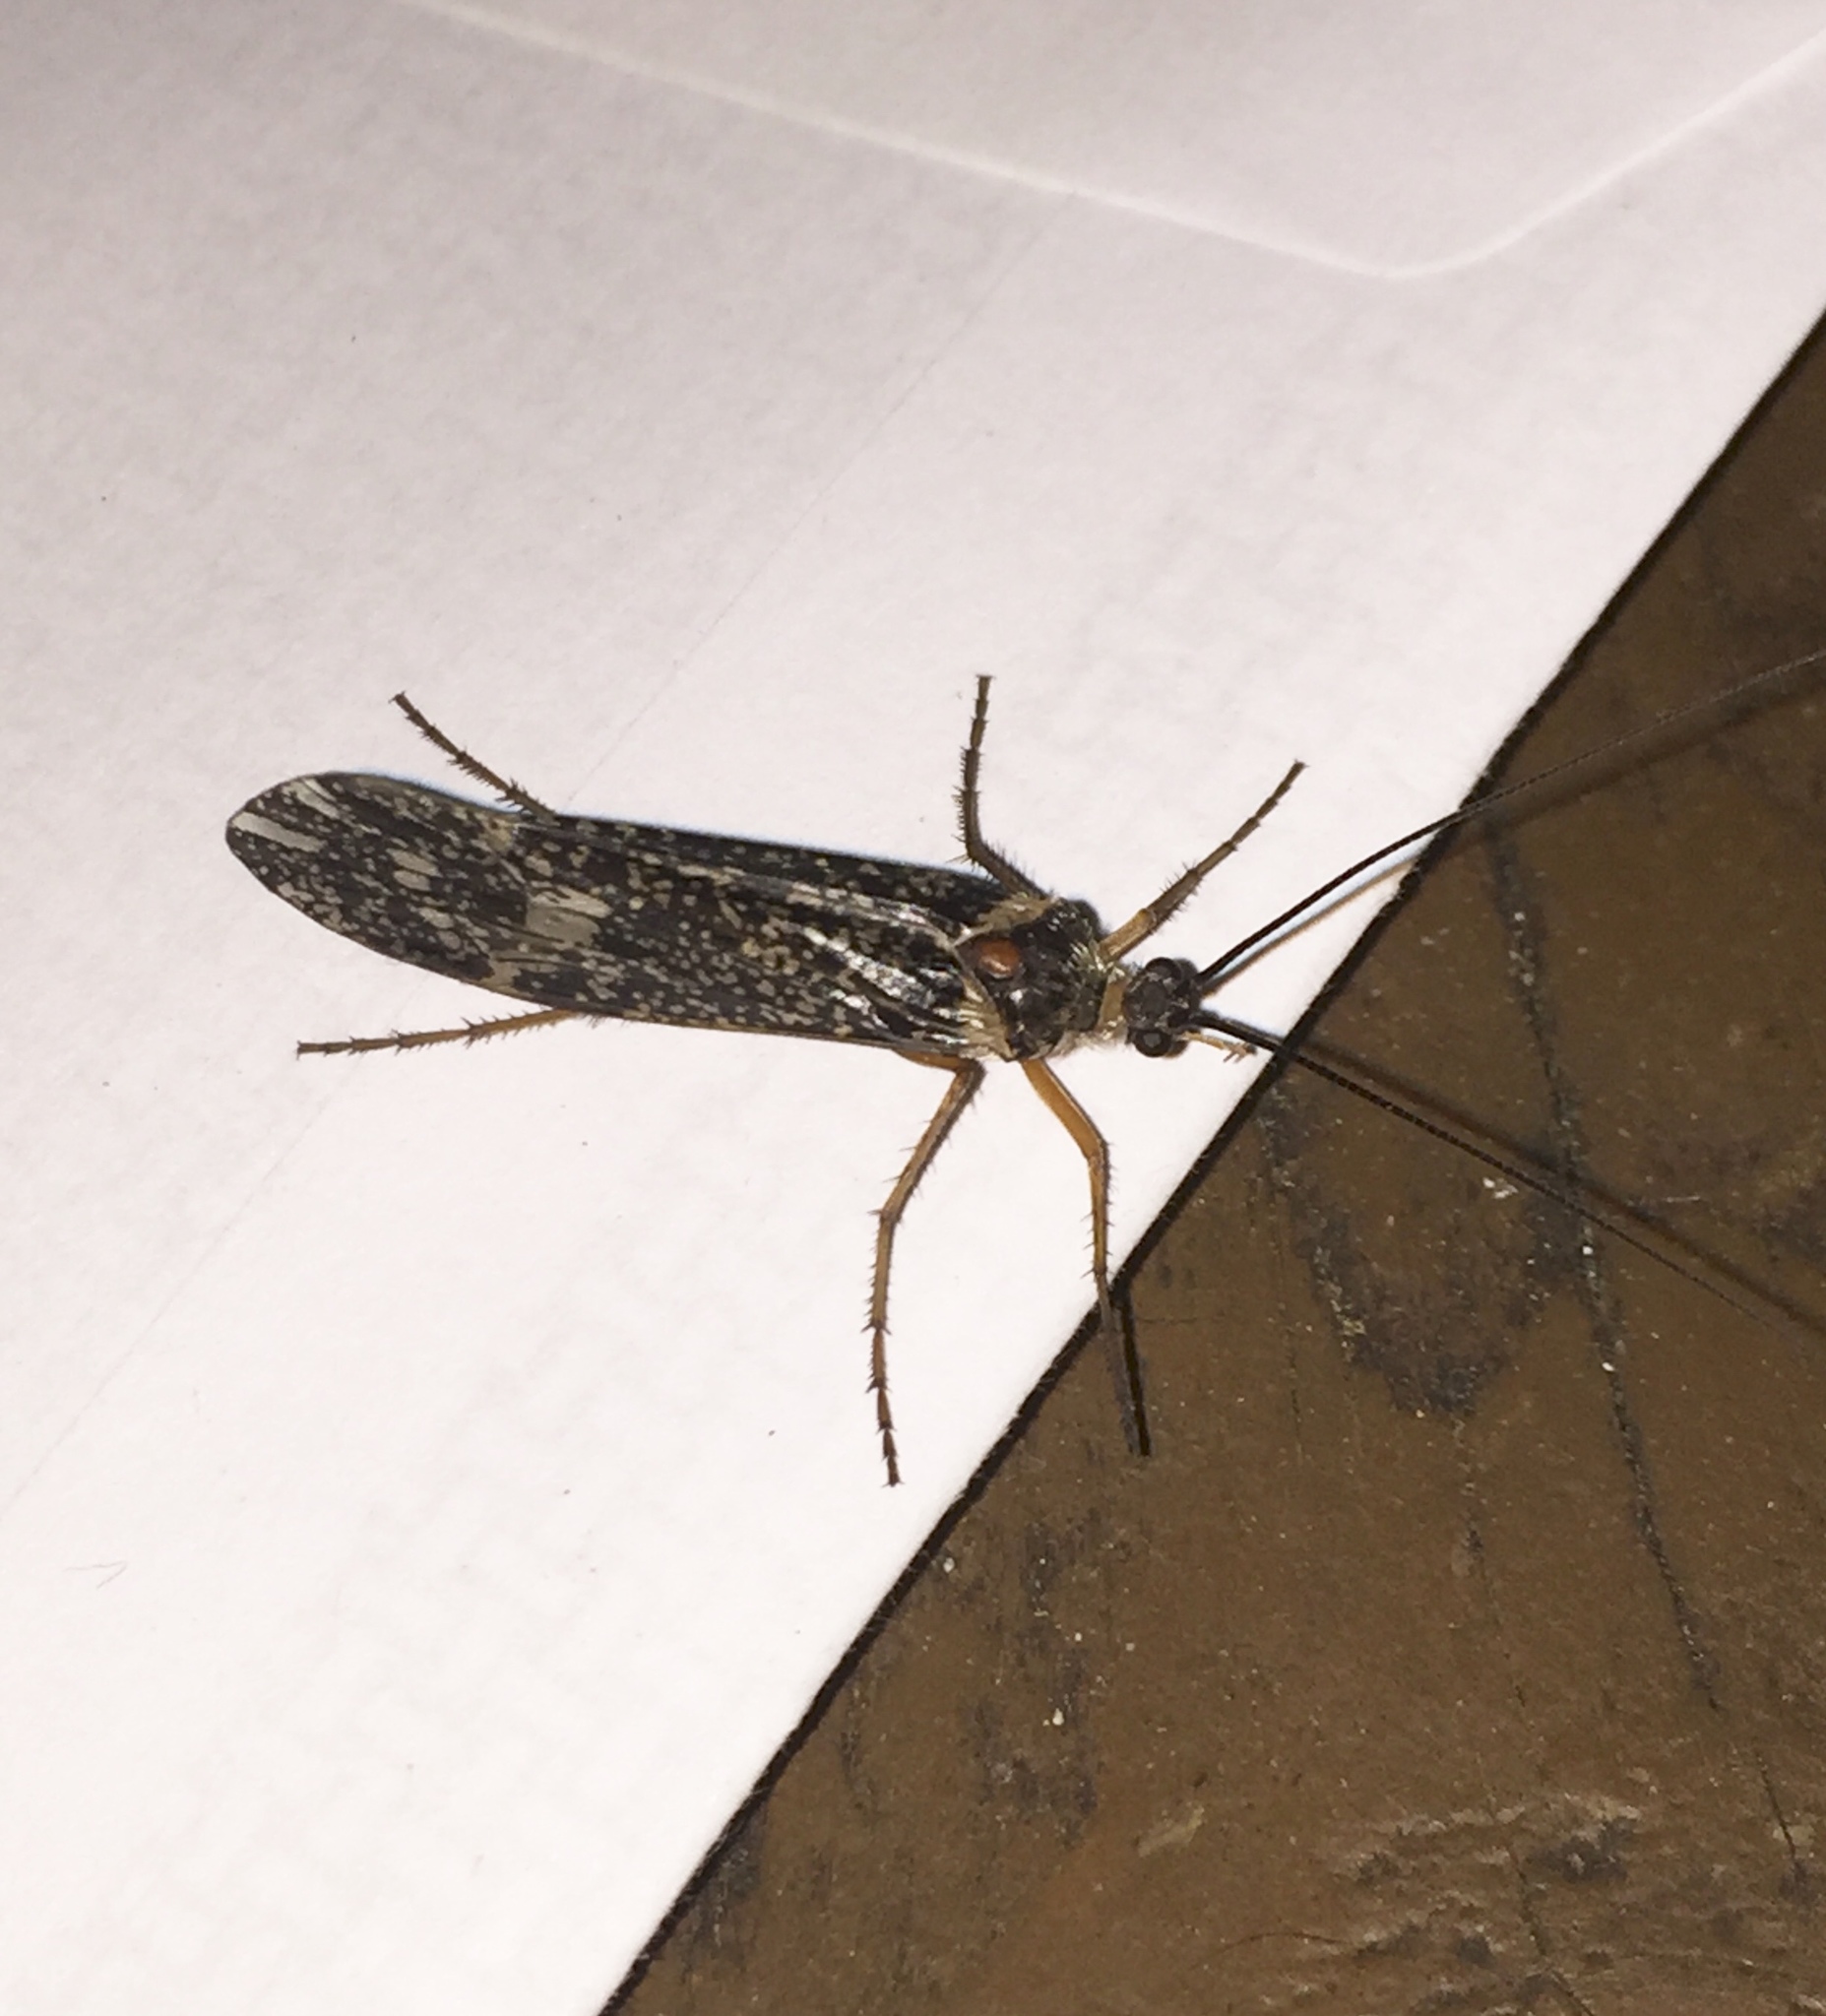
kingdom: Animalia
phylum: Arthropoda
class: Insecta
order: Trichoptera
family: Limnephilidae
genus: Clistoronia
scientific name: Clistoronia magnifica
